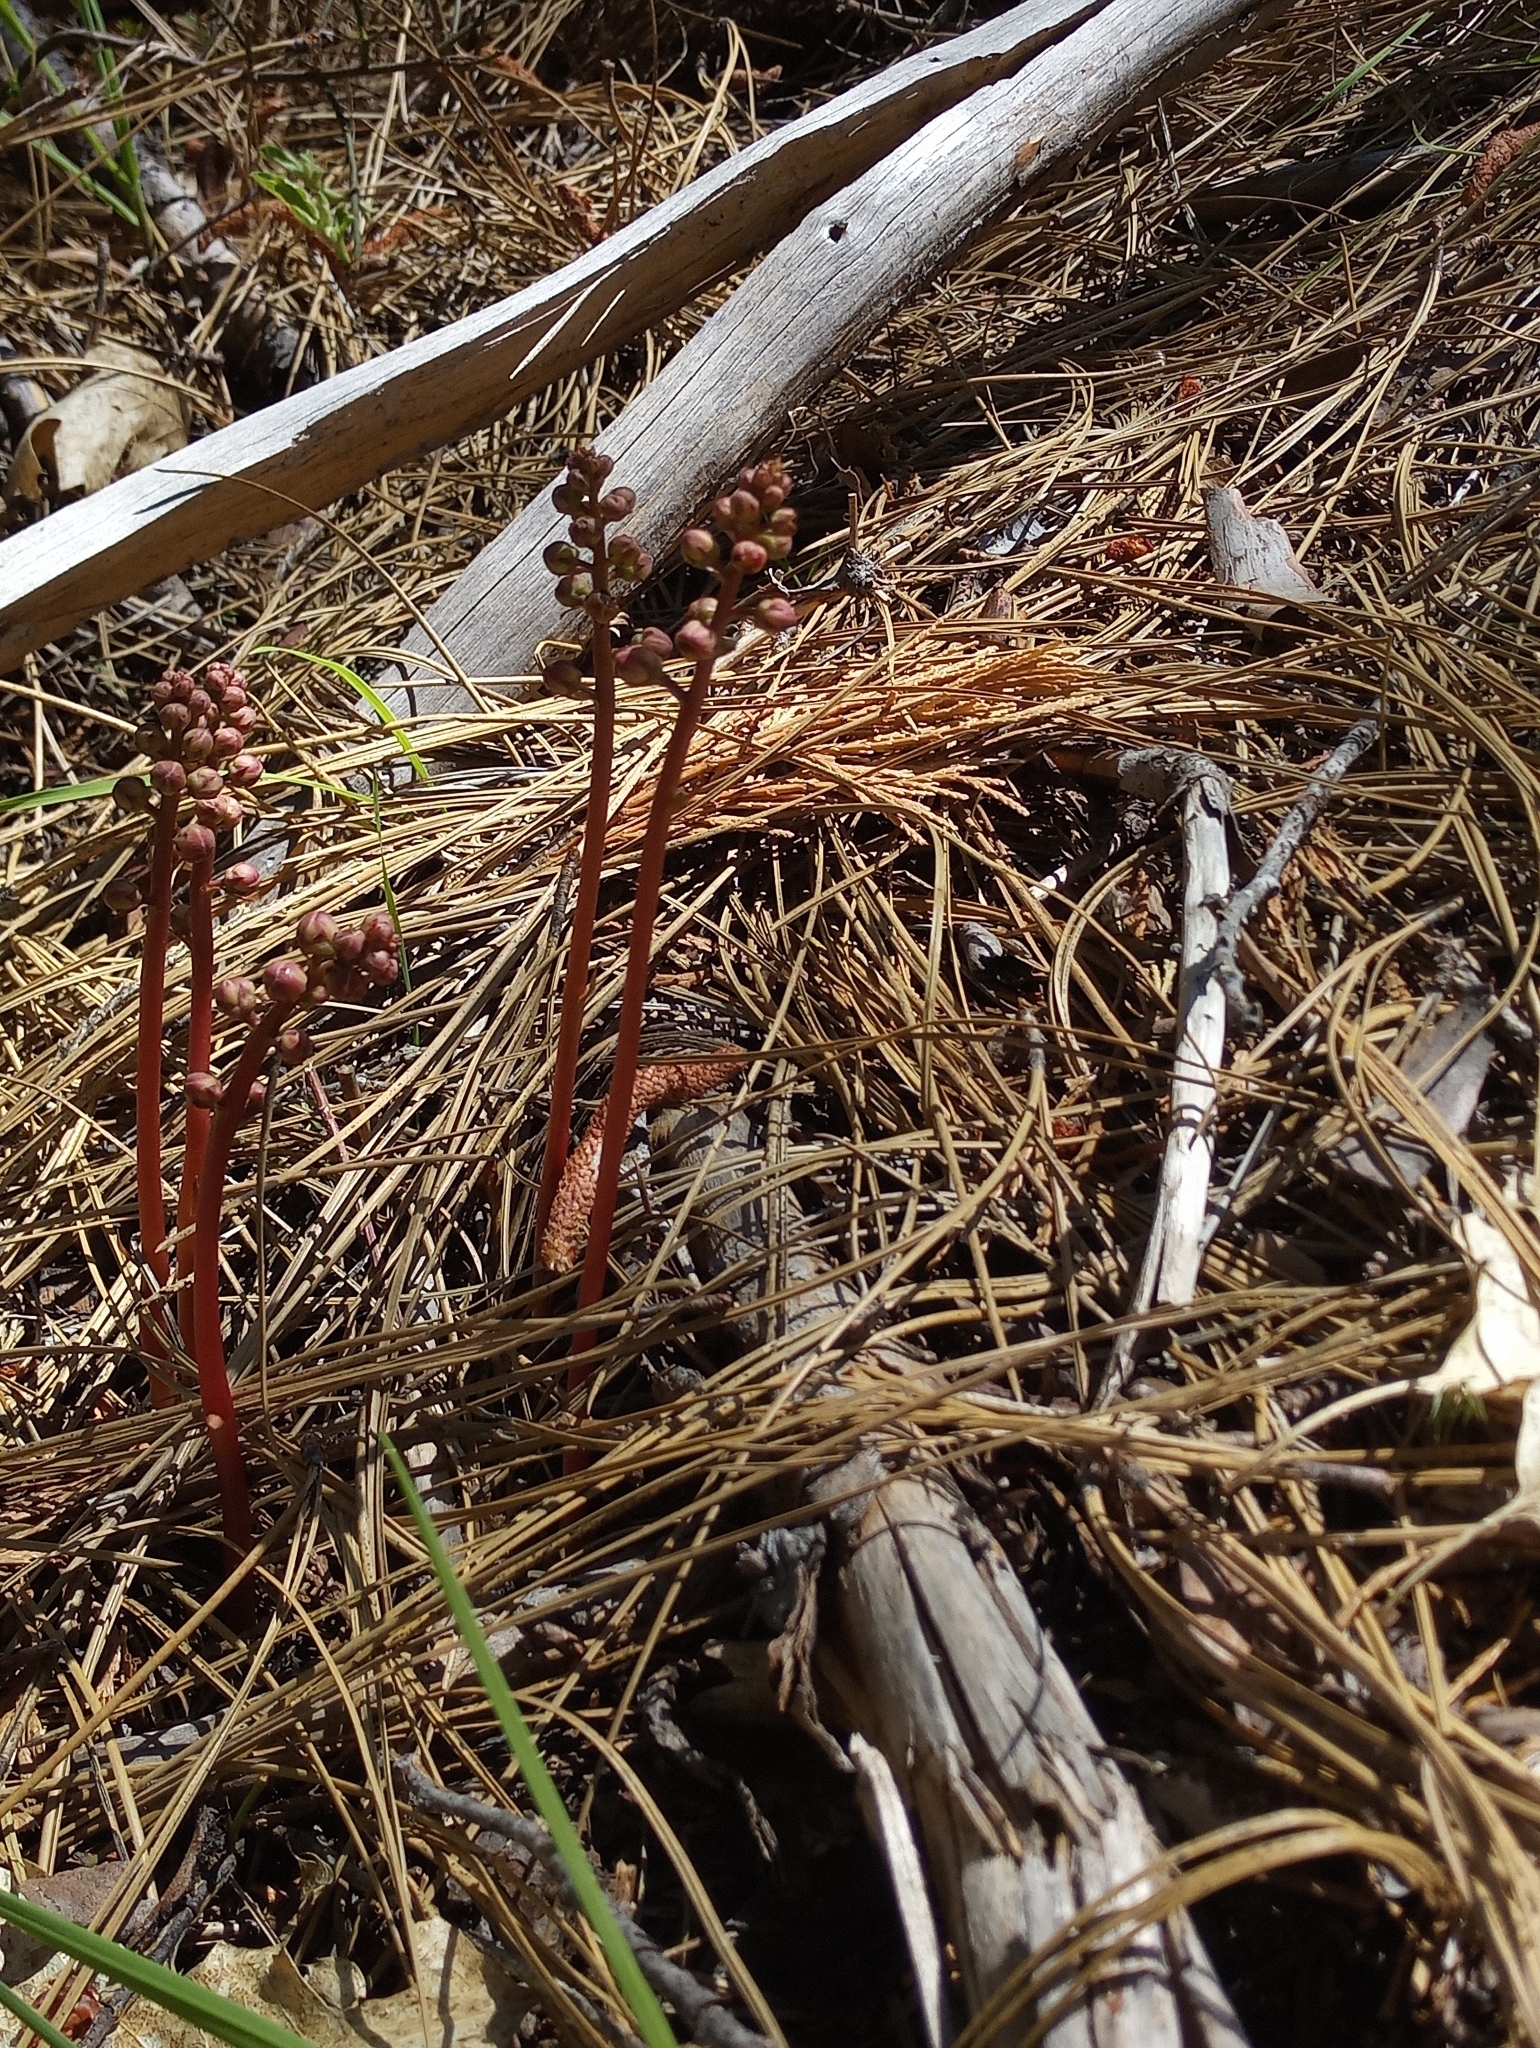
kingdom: Plantae
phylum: Tracheophyta
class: Magnoliopsida
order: Ericales
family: Ericaceae
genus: Pyrola
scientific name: Pyrola aphylla
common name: Leafless wintergreen
